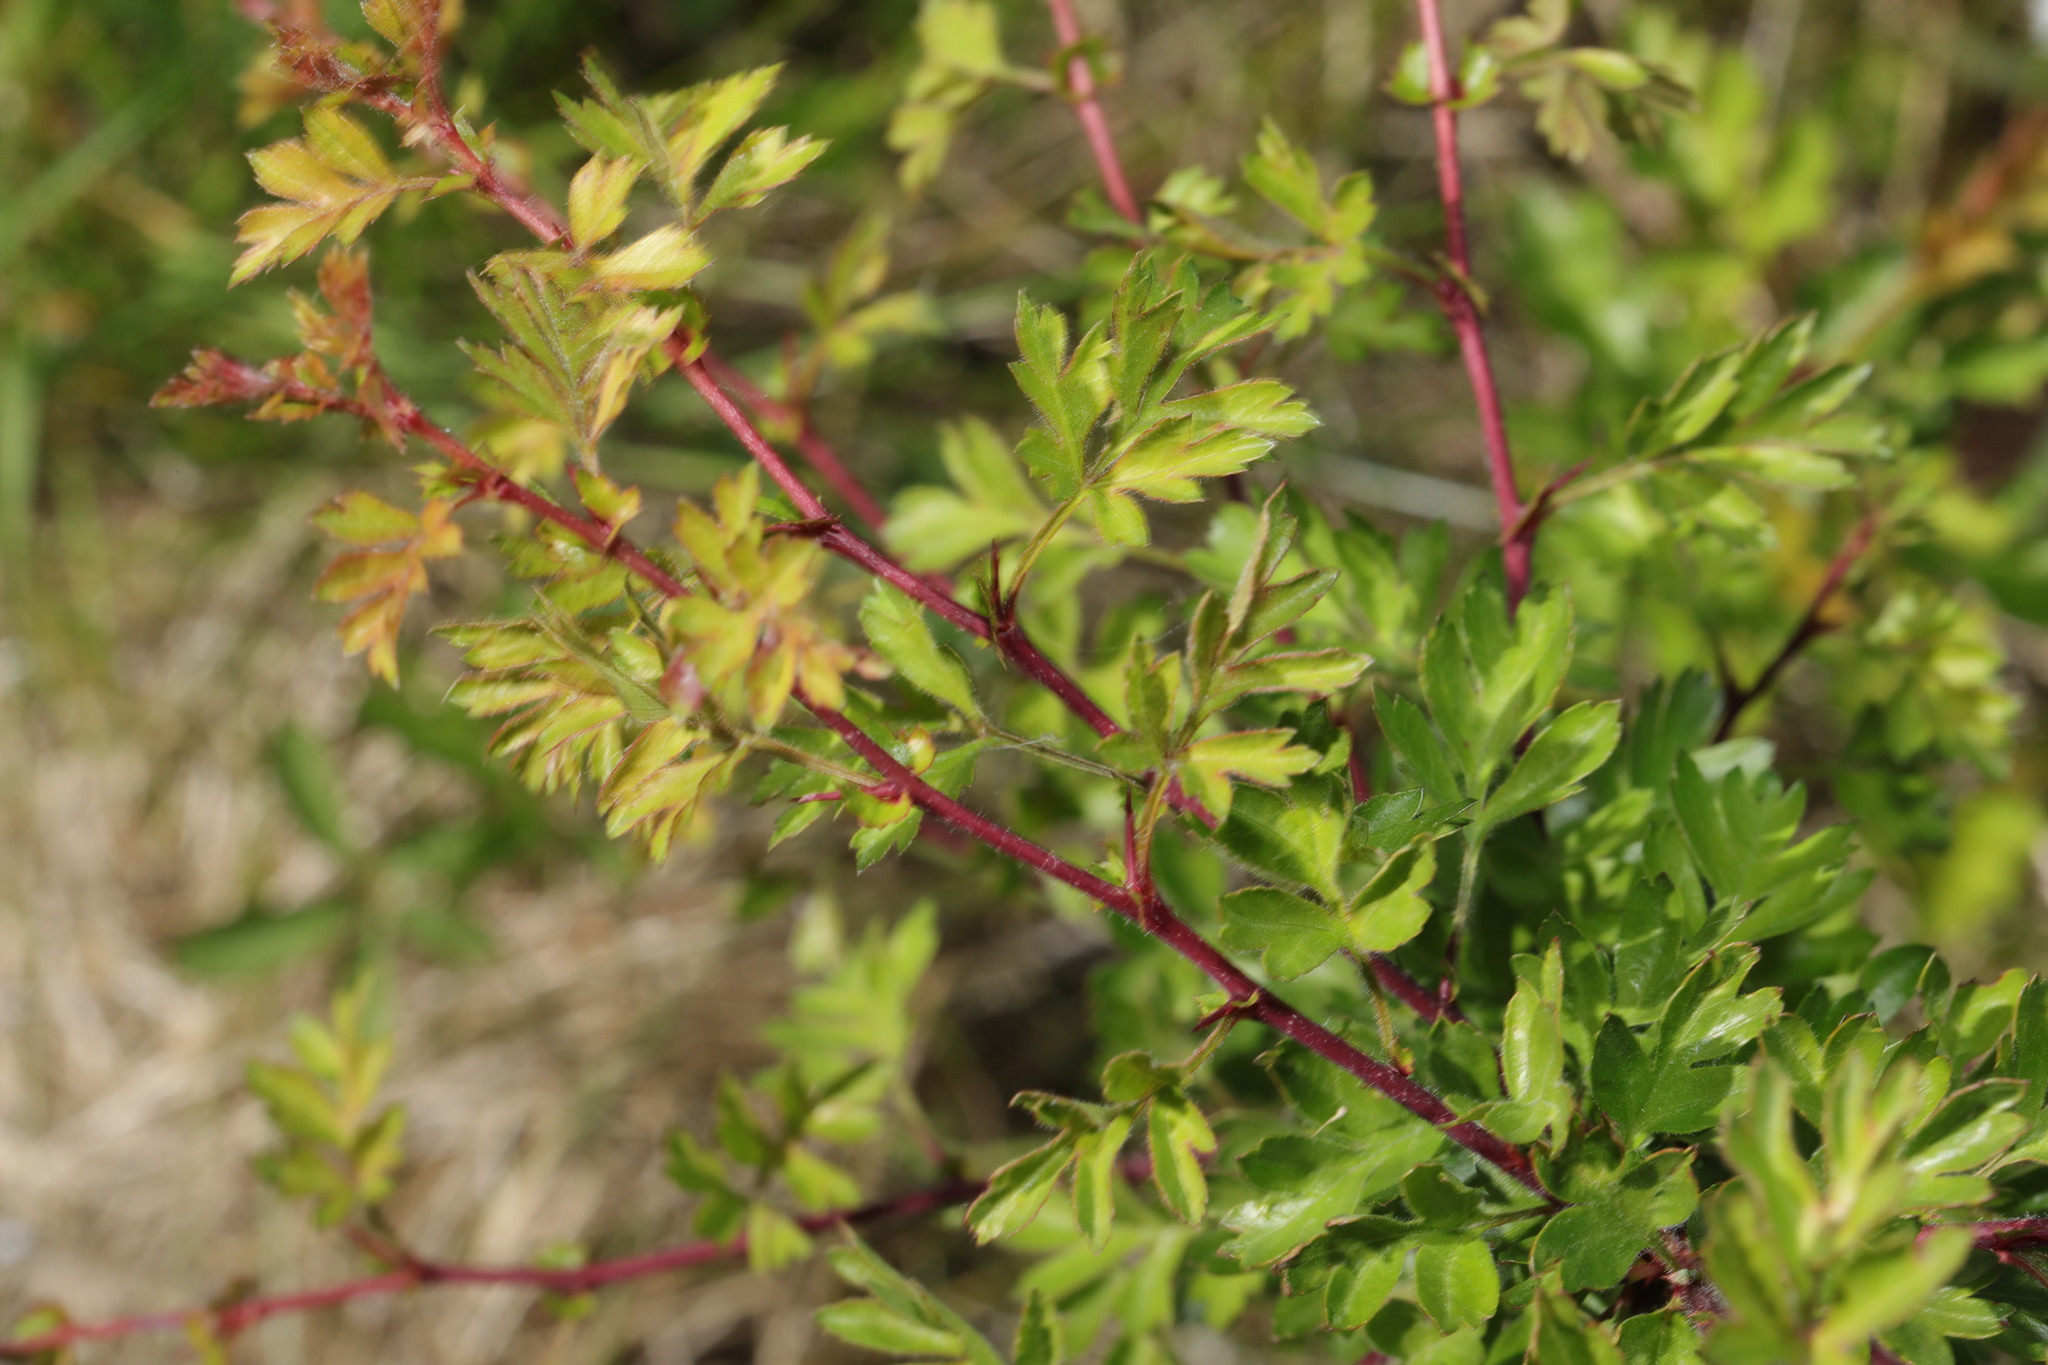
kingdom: Plantae
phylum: Tracheophyta
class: Magnoliopsida
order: Rosales
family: Rosaceae
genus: Crataegus
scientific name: Crataegus monogyna
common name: Hawthorn
